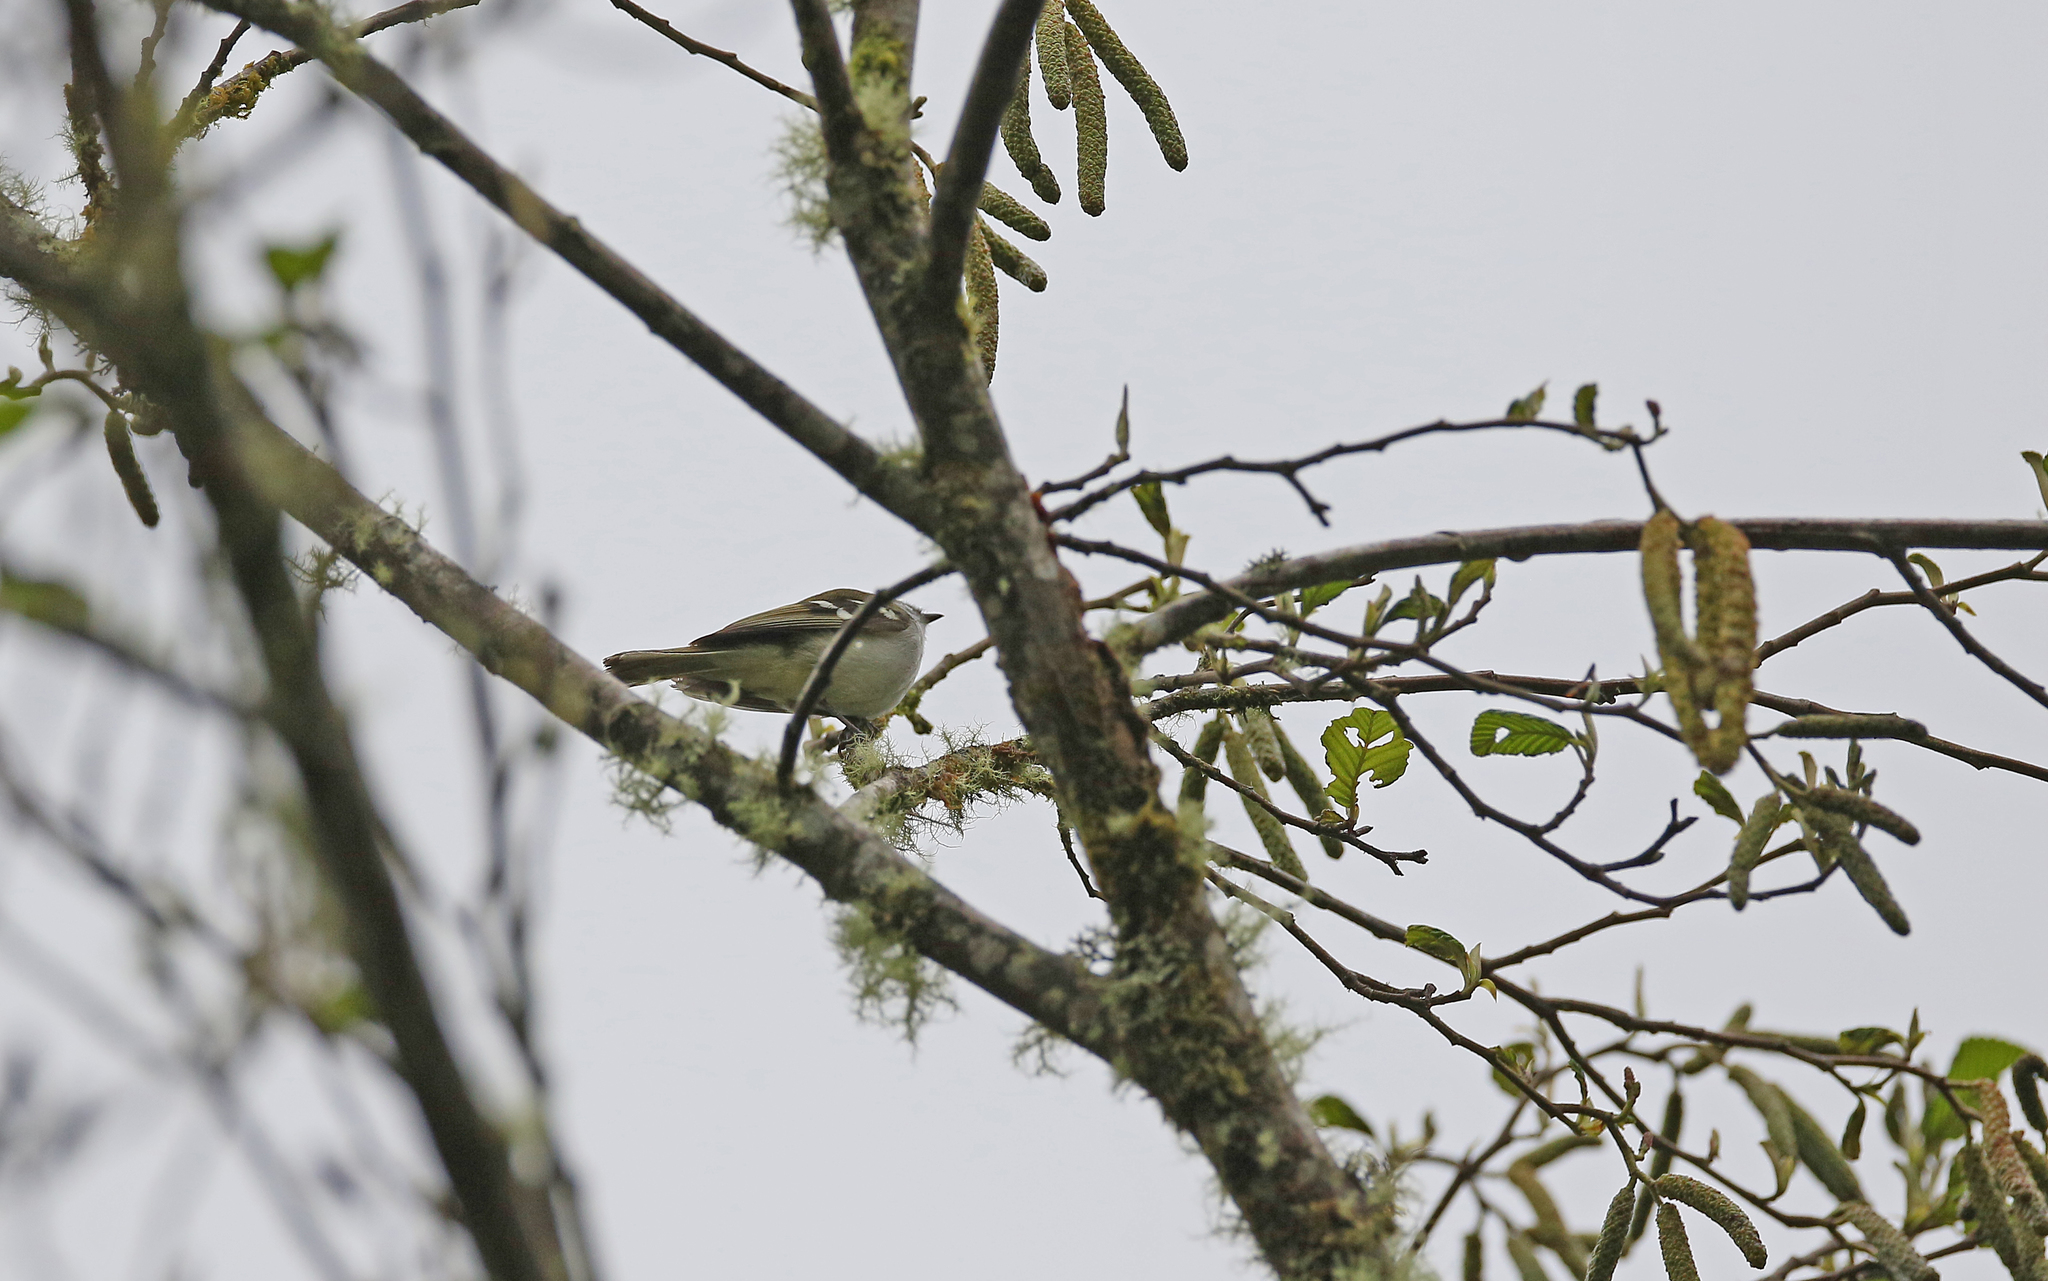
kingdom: Animalia
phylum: Chordata
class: Aves
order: Passeriformes
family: Tyrannidae
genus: Mecocerculus
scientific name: Mecocerculus stictopterus
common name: White-banded tyrannulet
